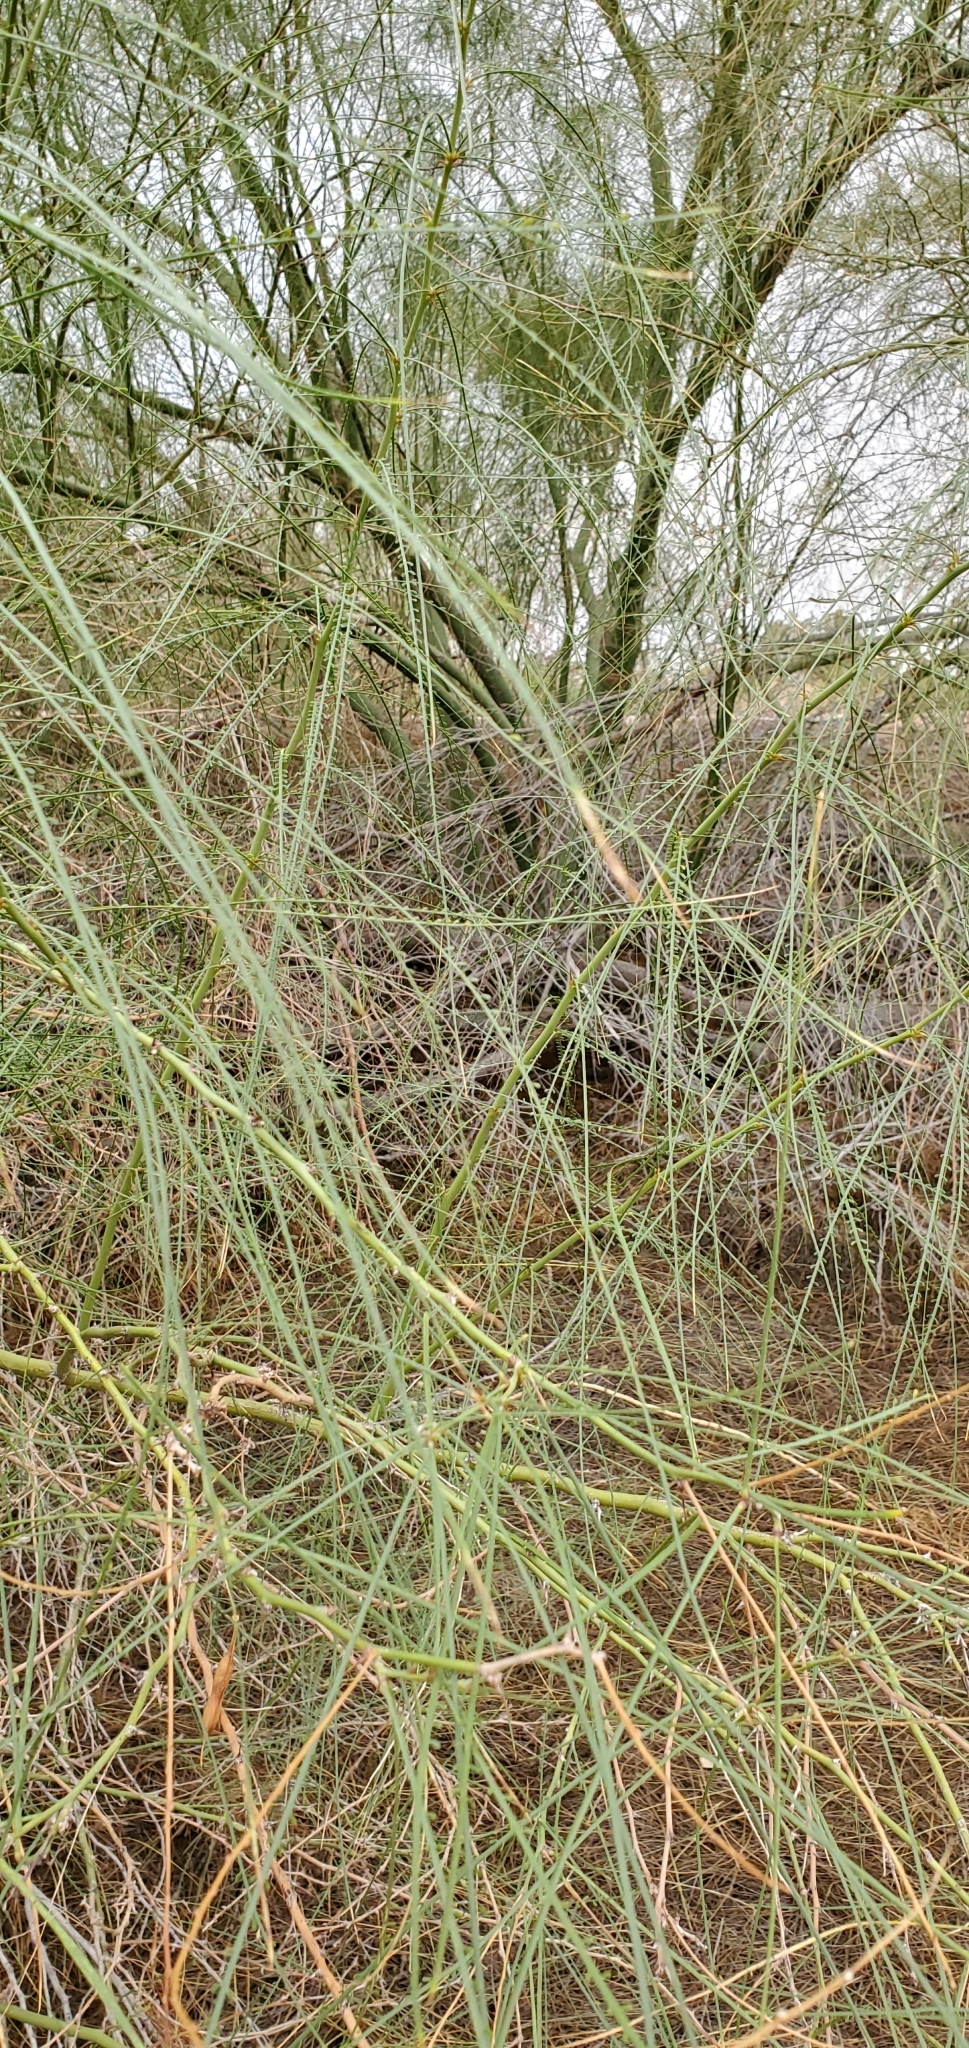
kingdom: Plantae
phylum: Tracheophyta
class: Magnoliopsida
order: Fabales
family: Fabaceae
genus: Parkinsonia
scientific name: Parkinsonia aculeata
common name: Jerusalem thorn
